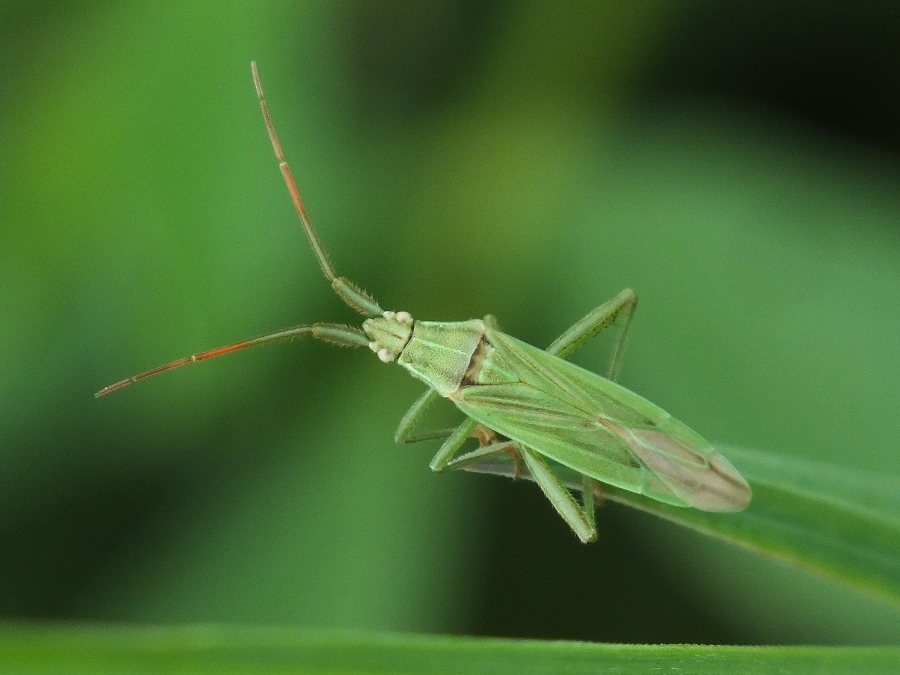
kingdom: Animalia
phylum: Arthropoda
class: Insecta
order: Hemiptera
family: Miridae
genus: Stenodema
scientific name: Stenodema calcarata
